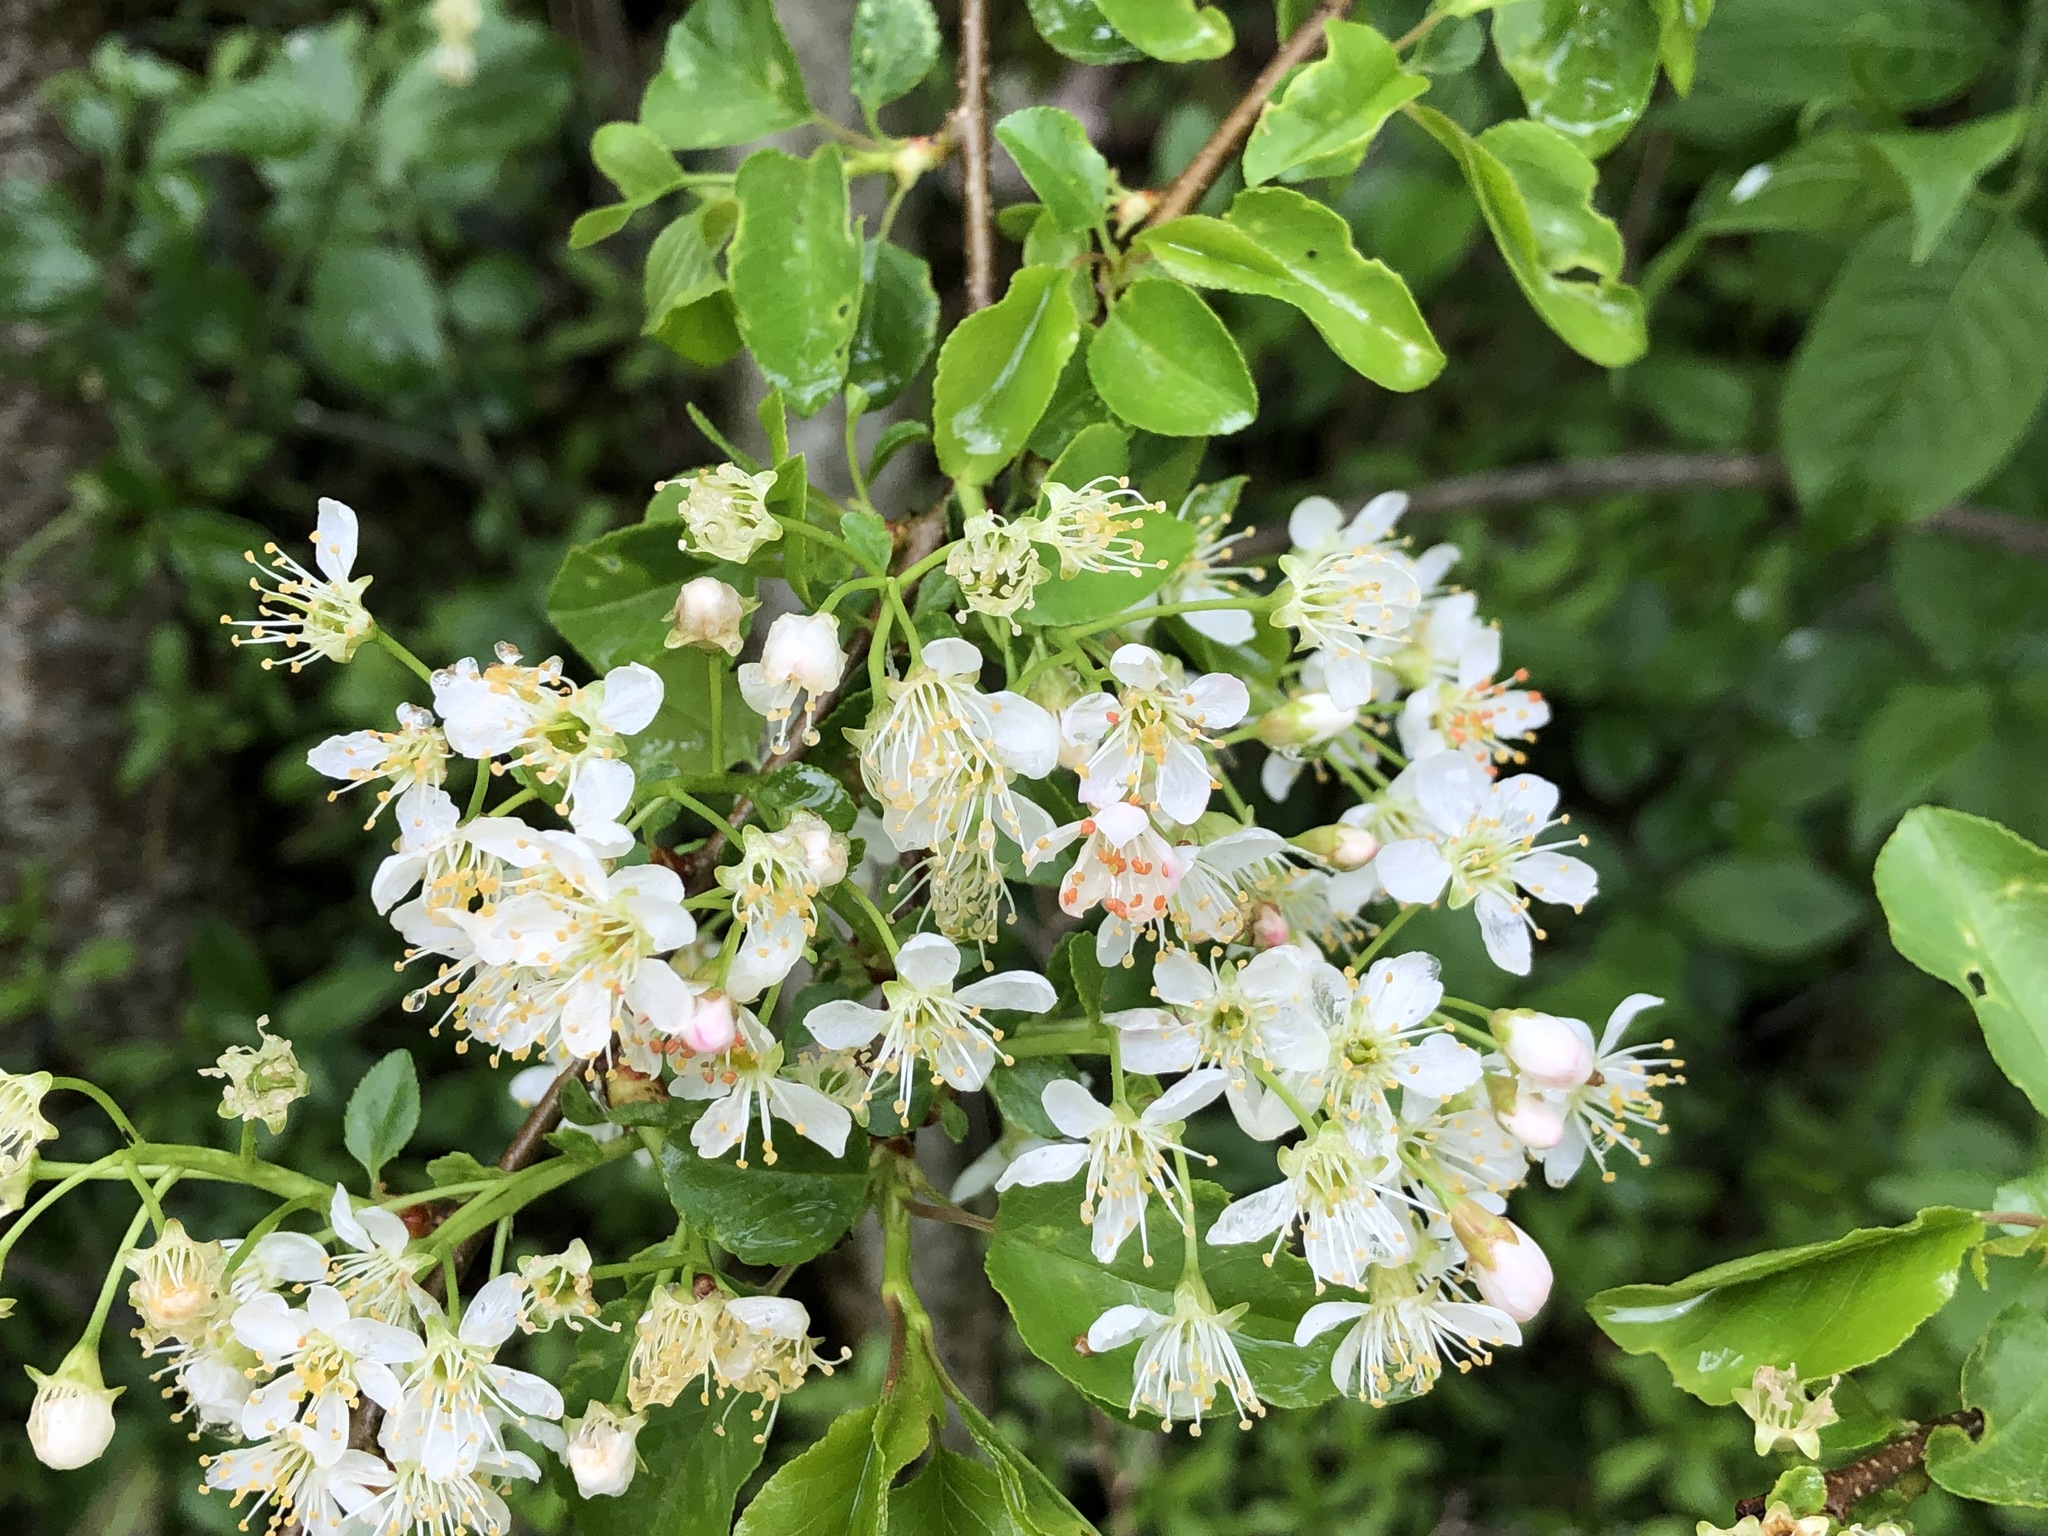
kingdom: Plantae
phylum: Tracheophyta
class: Magnoliopsida
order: Rosales
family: Rosaceae
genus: Prunus
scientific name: Prunus mahaleb
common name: Mahaleb cherry
